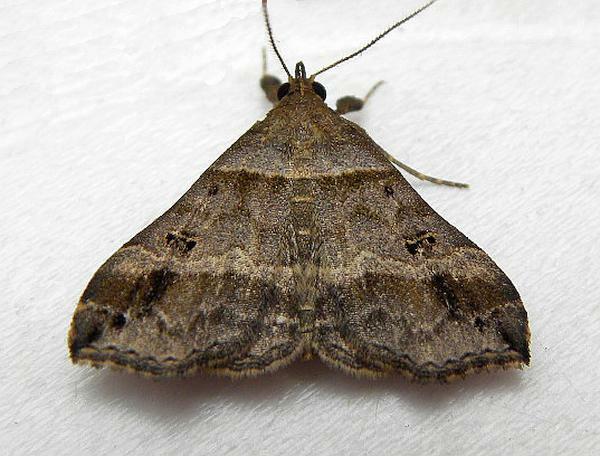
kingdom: Animalia
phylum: Arthropoda
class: Insecta
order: Lepidoptera
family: Erebidae
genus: Phaeolita
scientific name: Phaeolita pyramusalis
